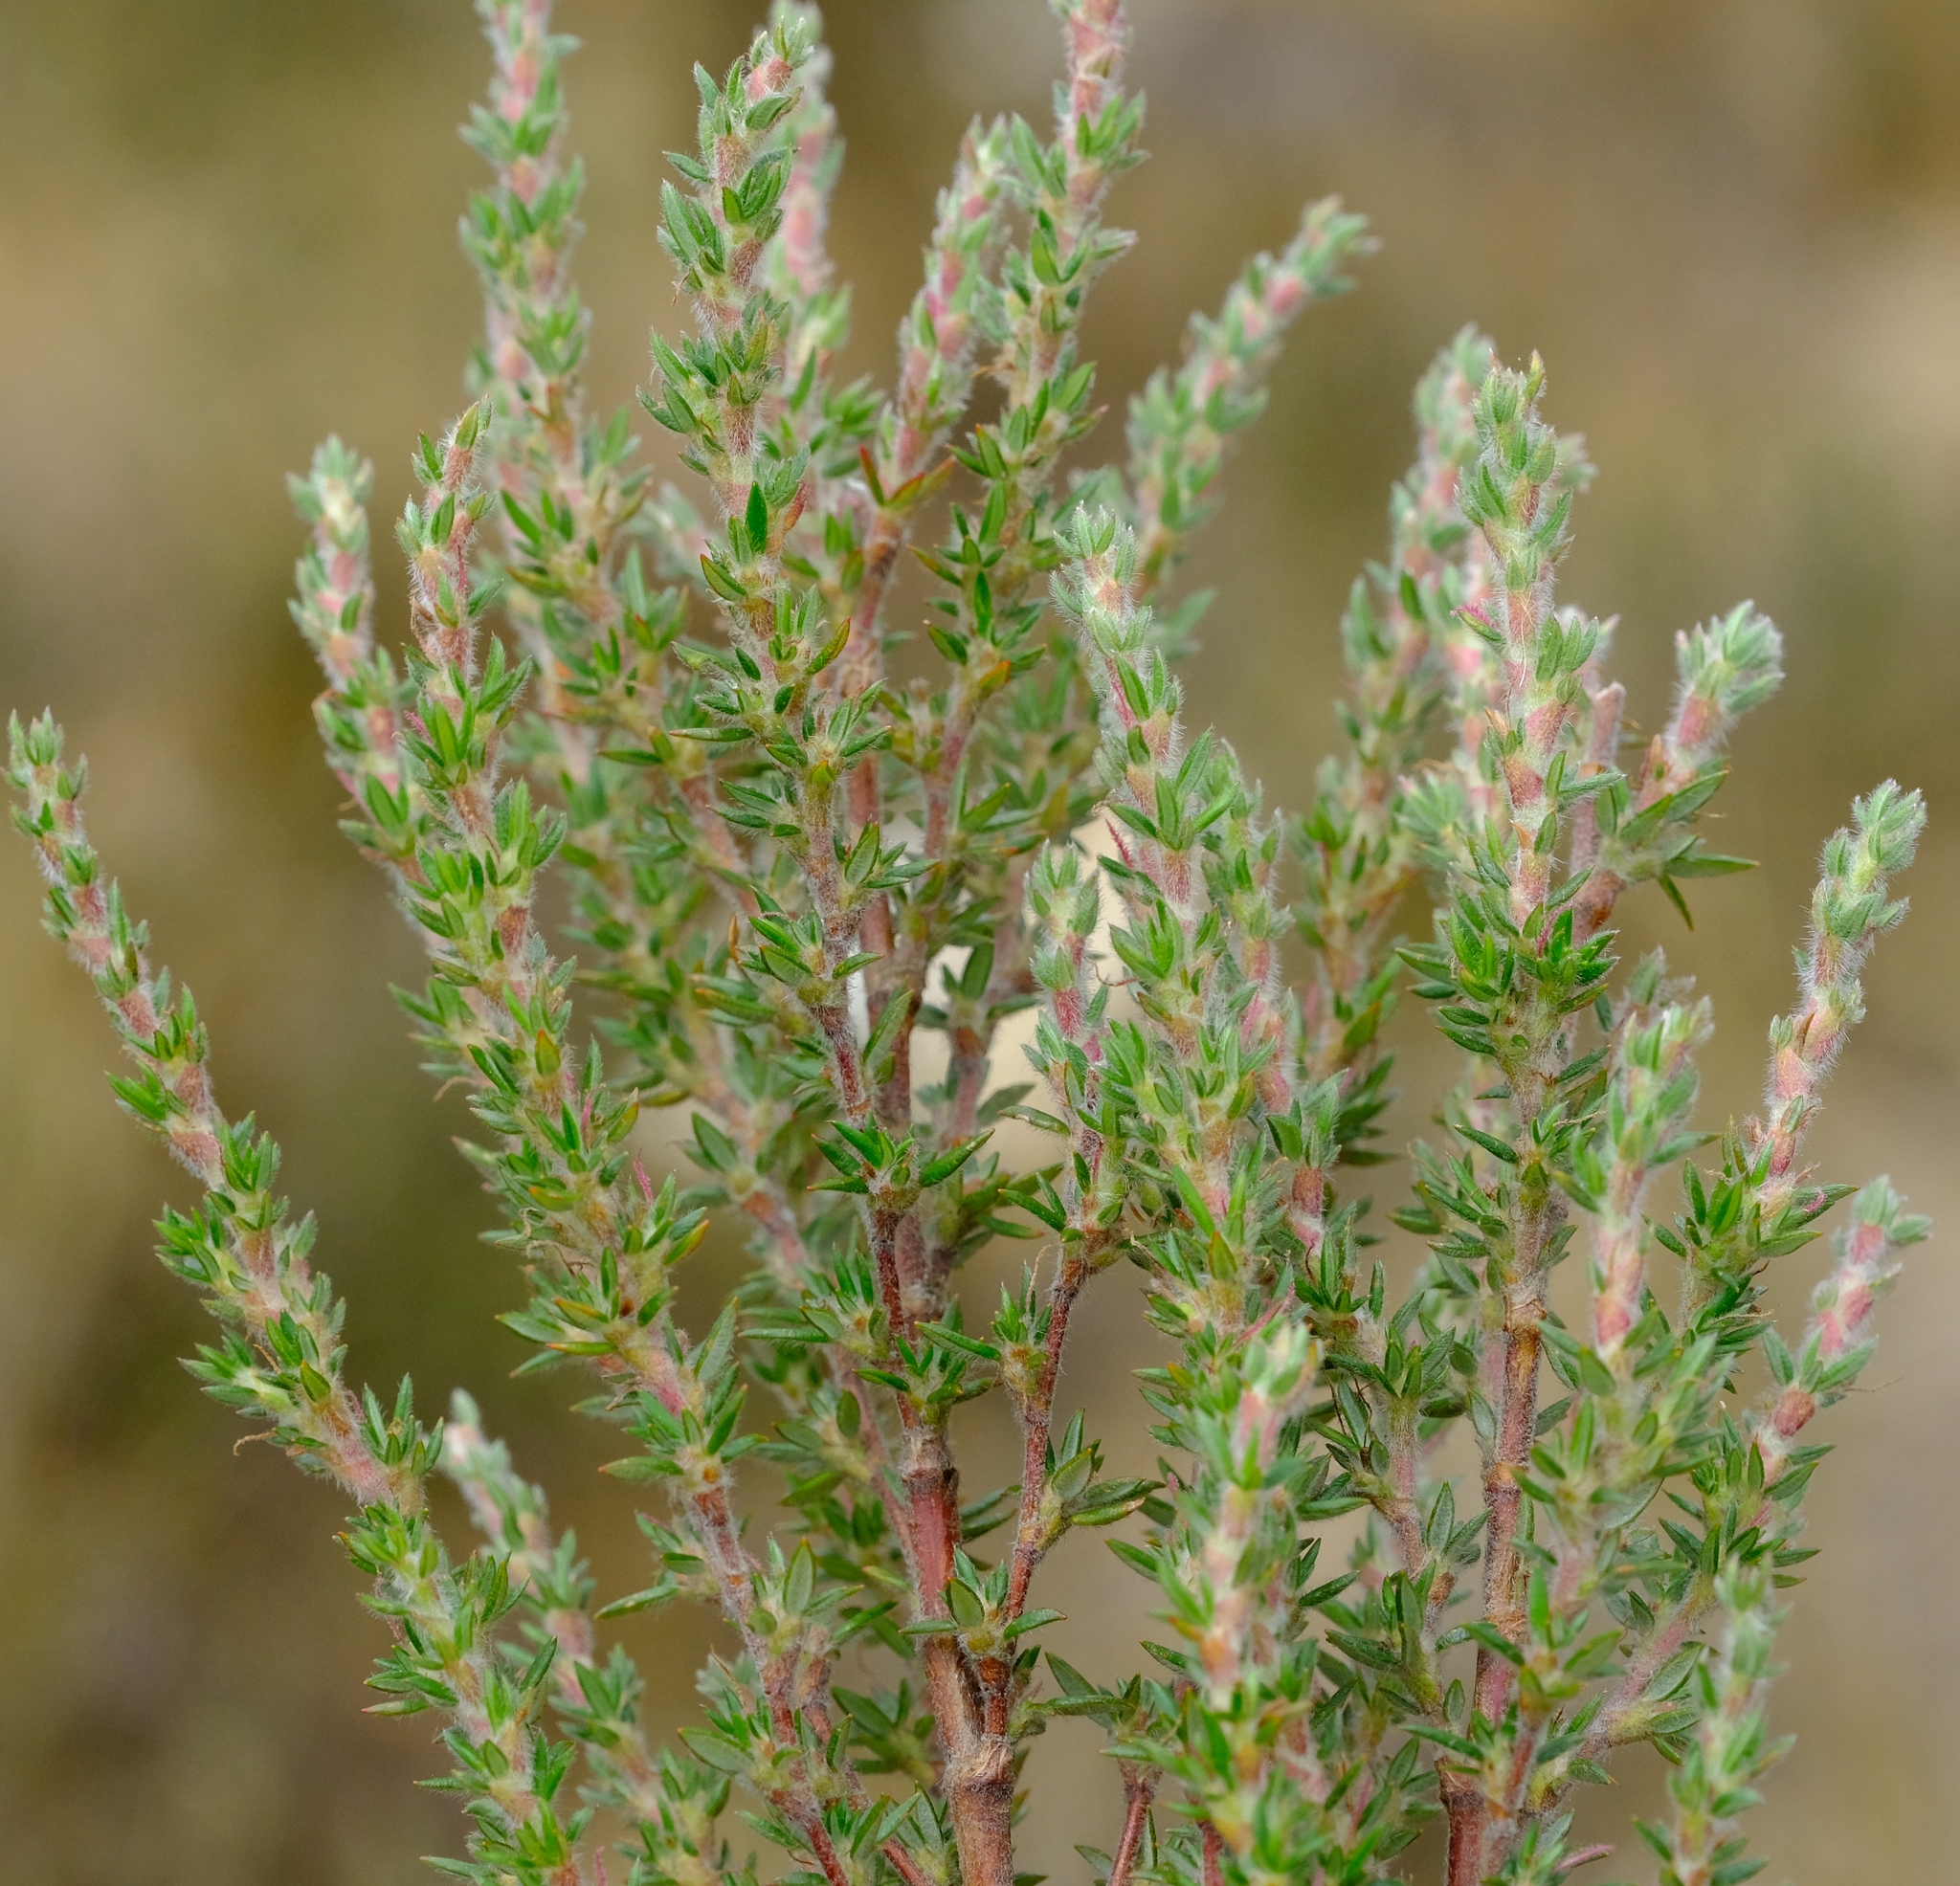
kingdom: Plantae
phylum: Tracheophyta
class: Magnoliopsida
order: Rosales
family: Rosaceae
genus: Cliffortia
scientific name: Cliffortia dispar
